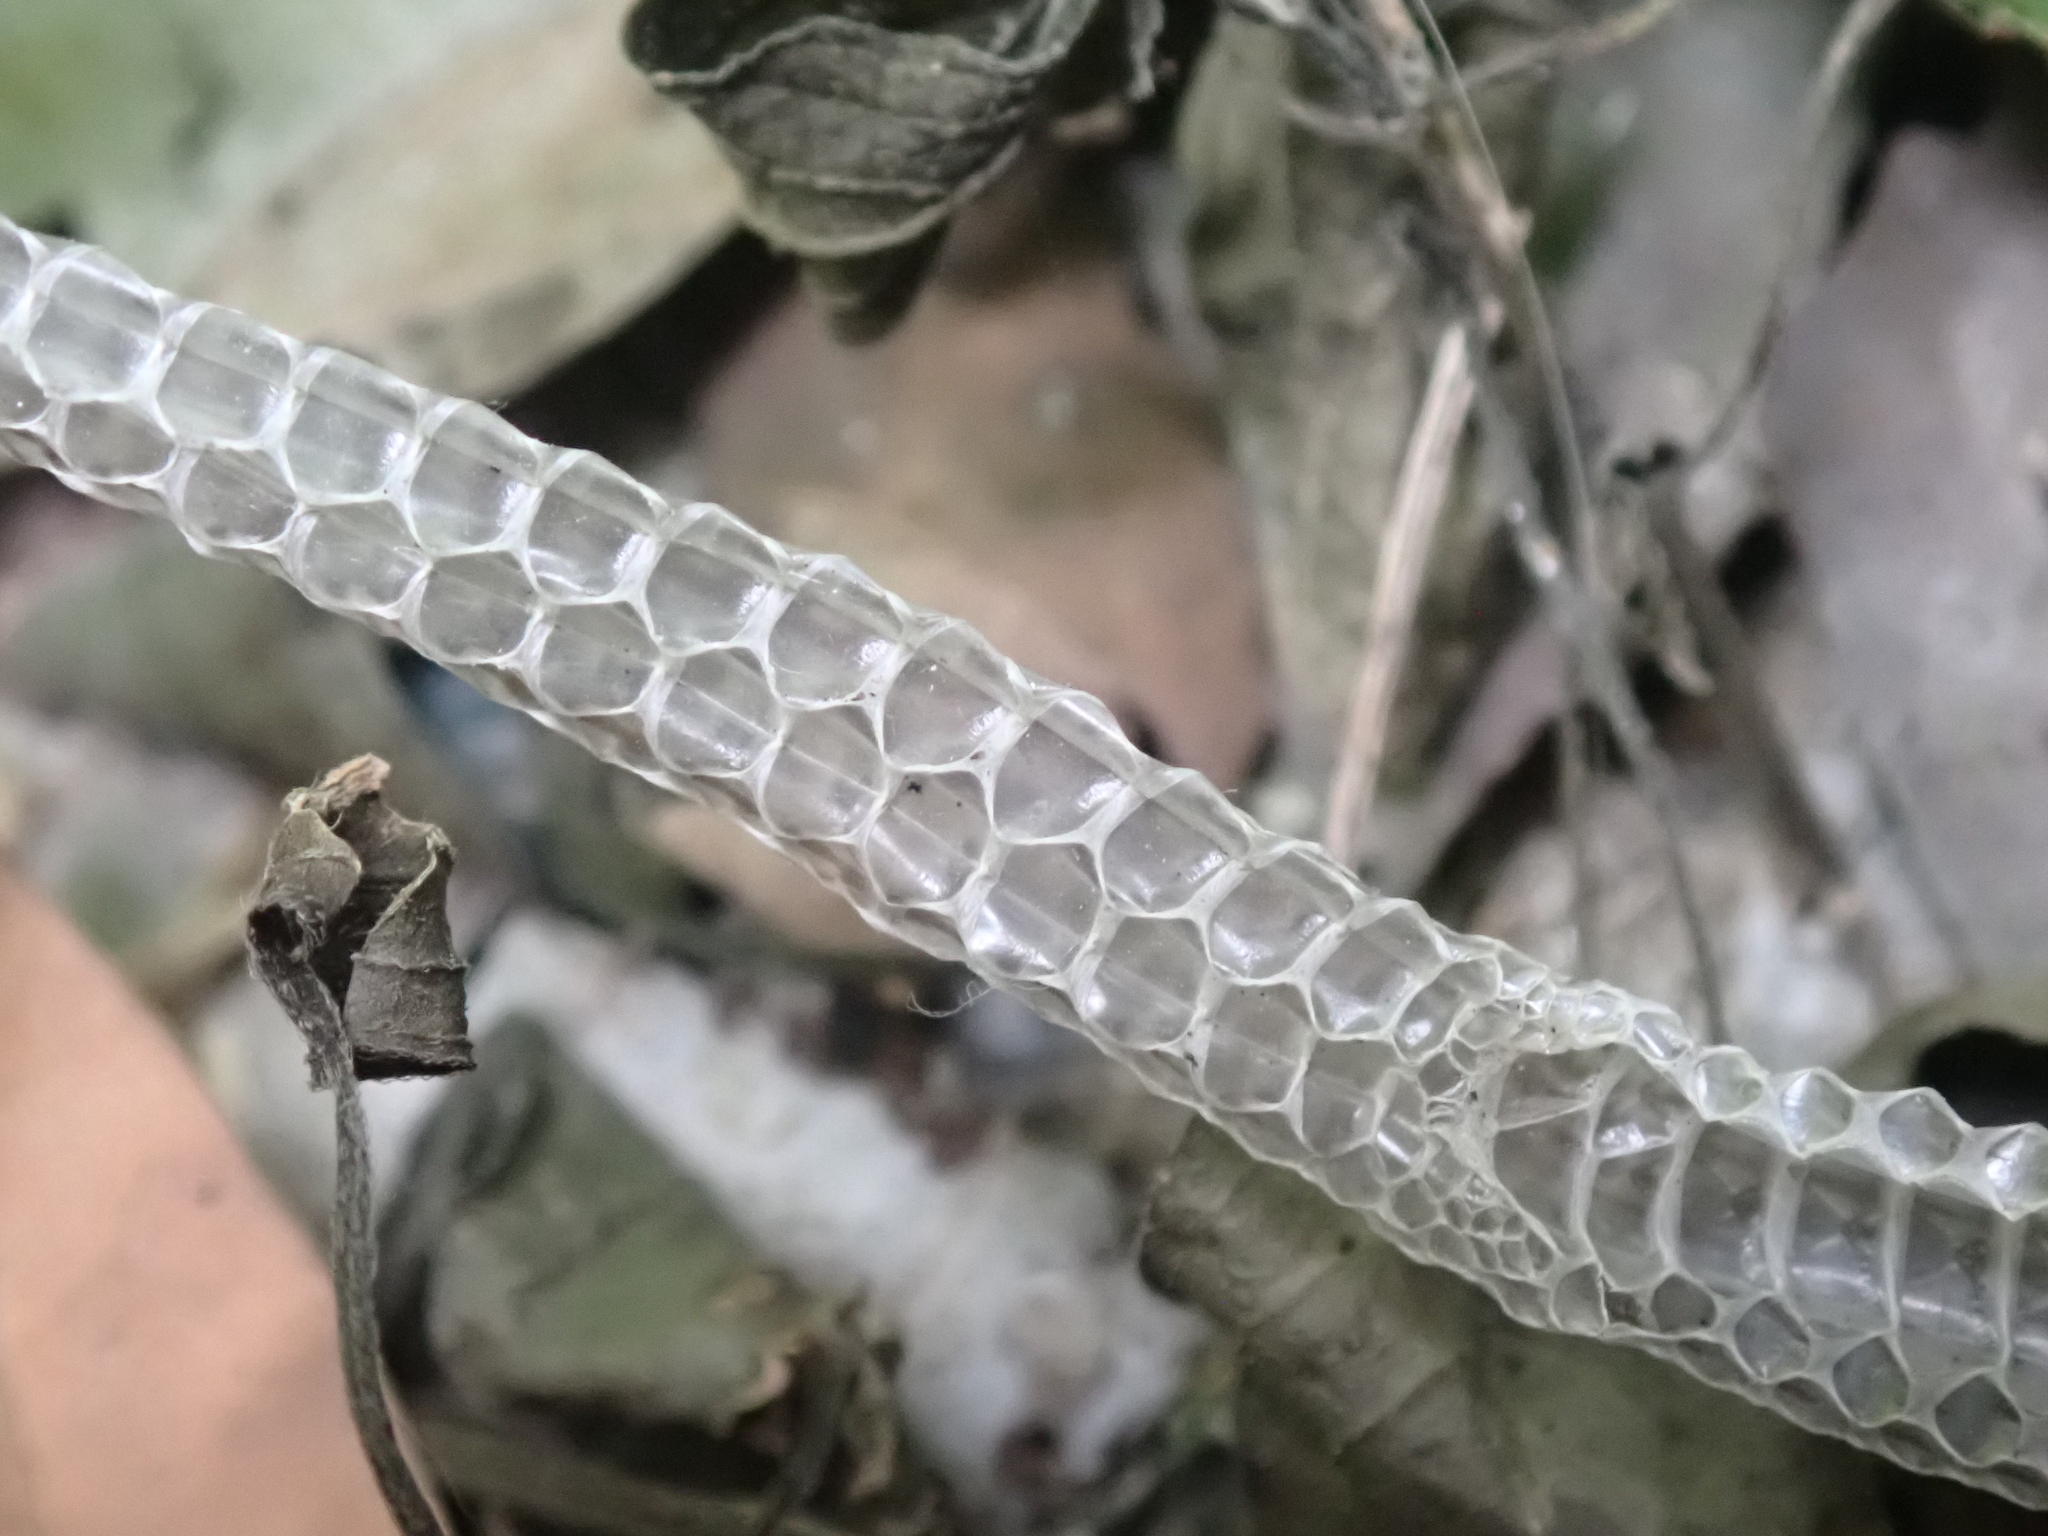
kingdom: Animalia
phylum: Chordata
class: Squamata
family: Colubridae
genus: Chrysopelea
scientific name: Chrysopelea ornata
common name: Golden flying snake
